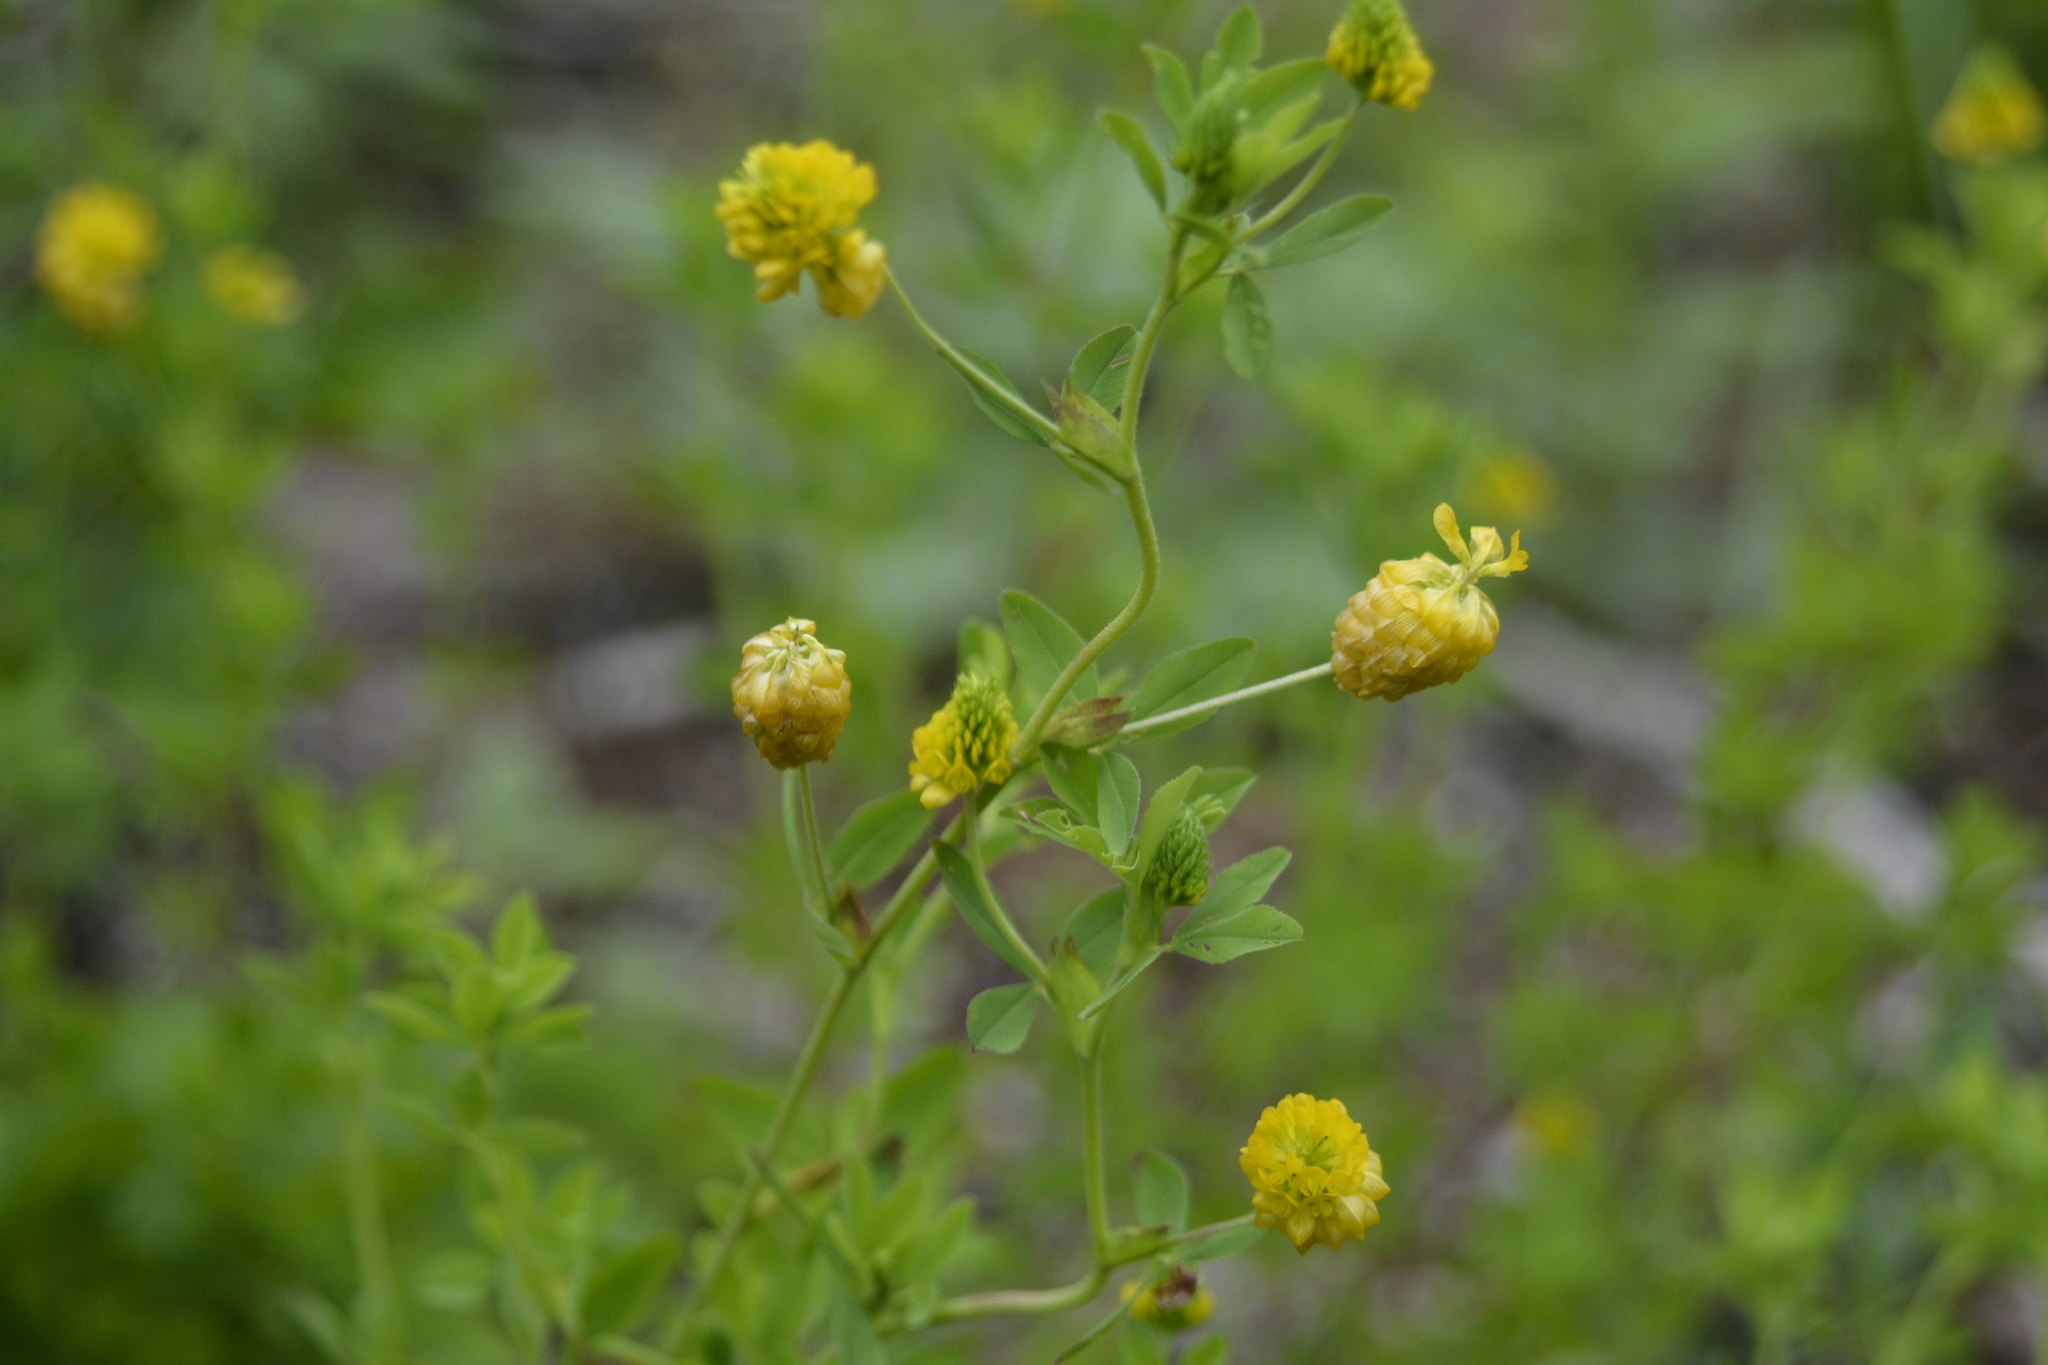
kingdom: Plantae
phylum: Tracheophyta
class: Magnoliopsida
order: Fabales
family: Fabaceae
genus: Trifolium
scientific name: Trifolium aureum
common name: Golden clover
